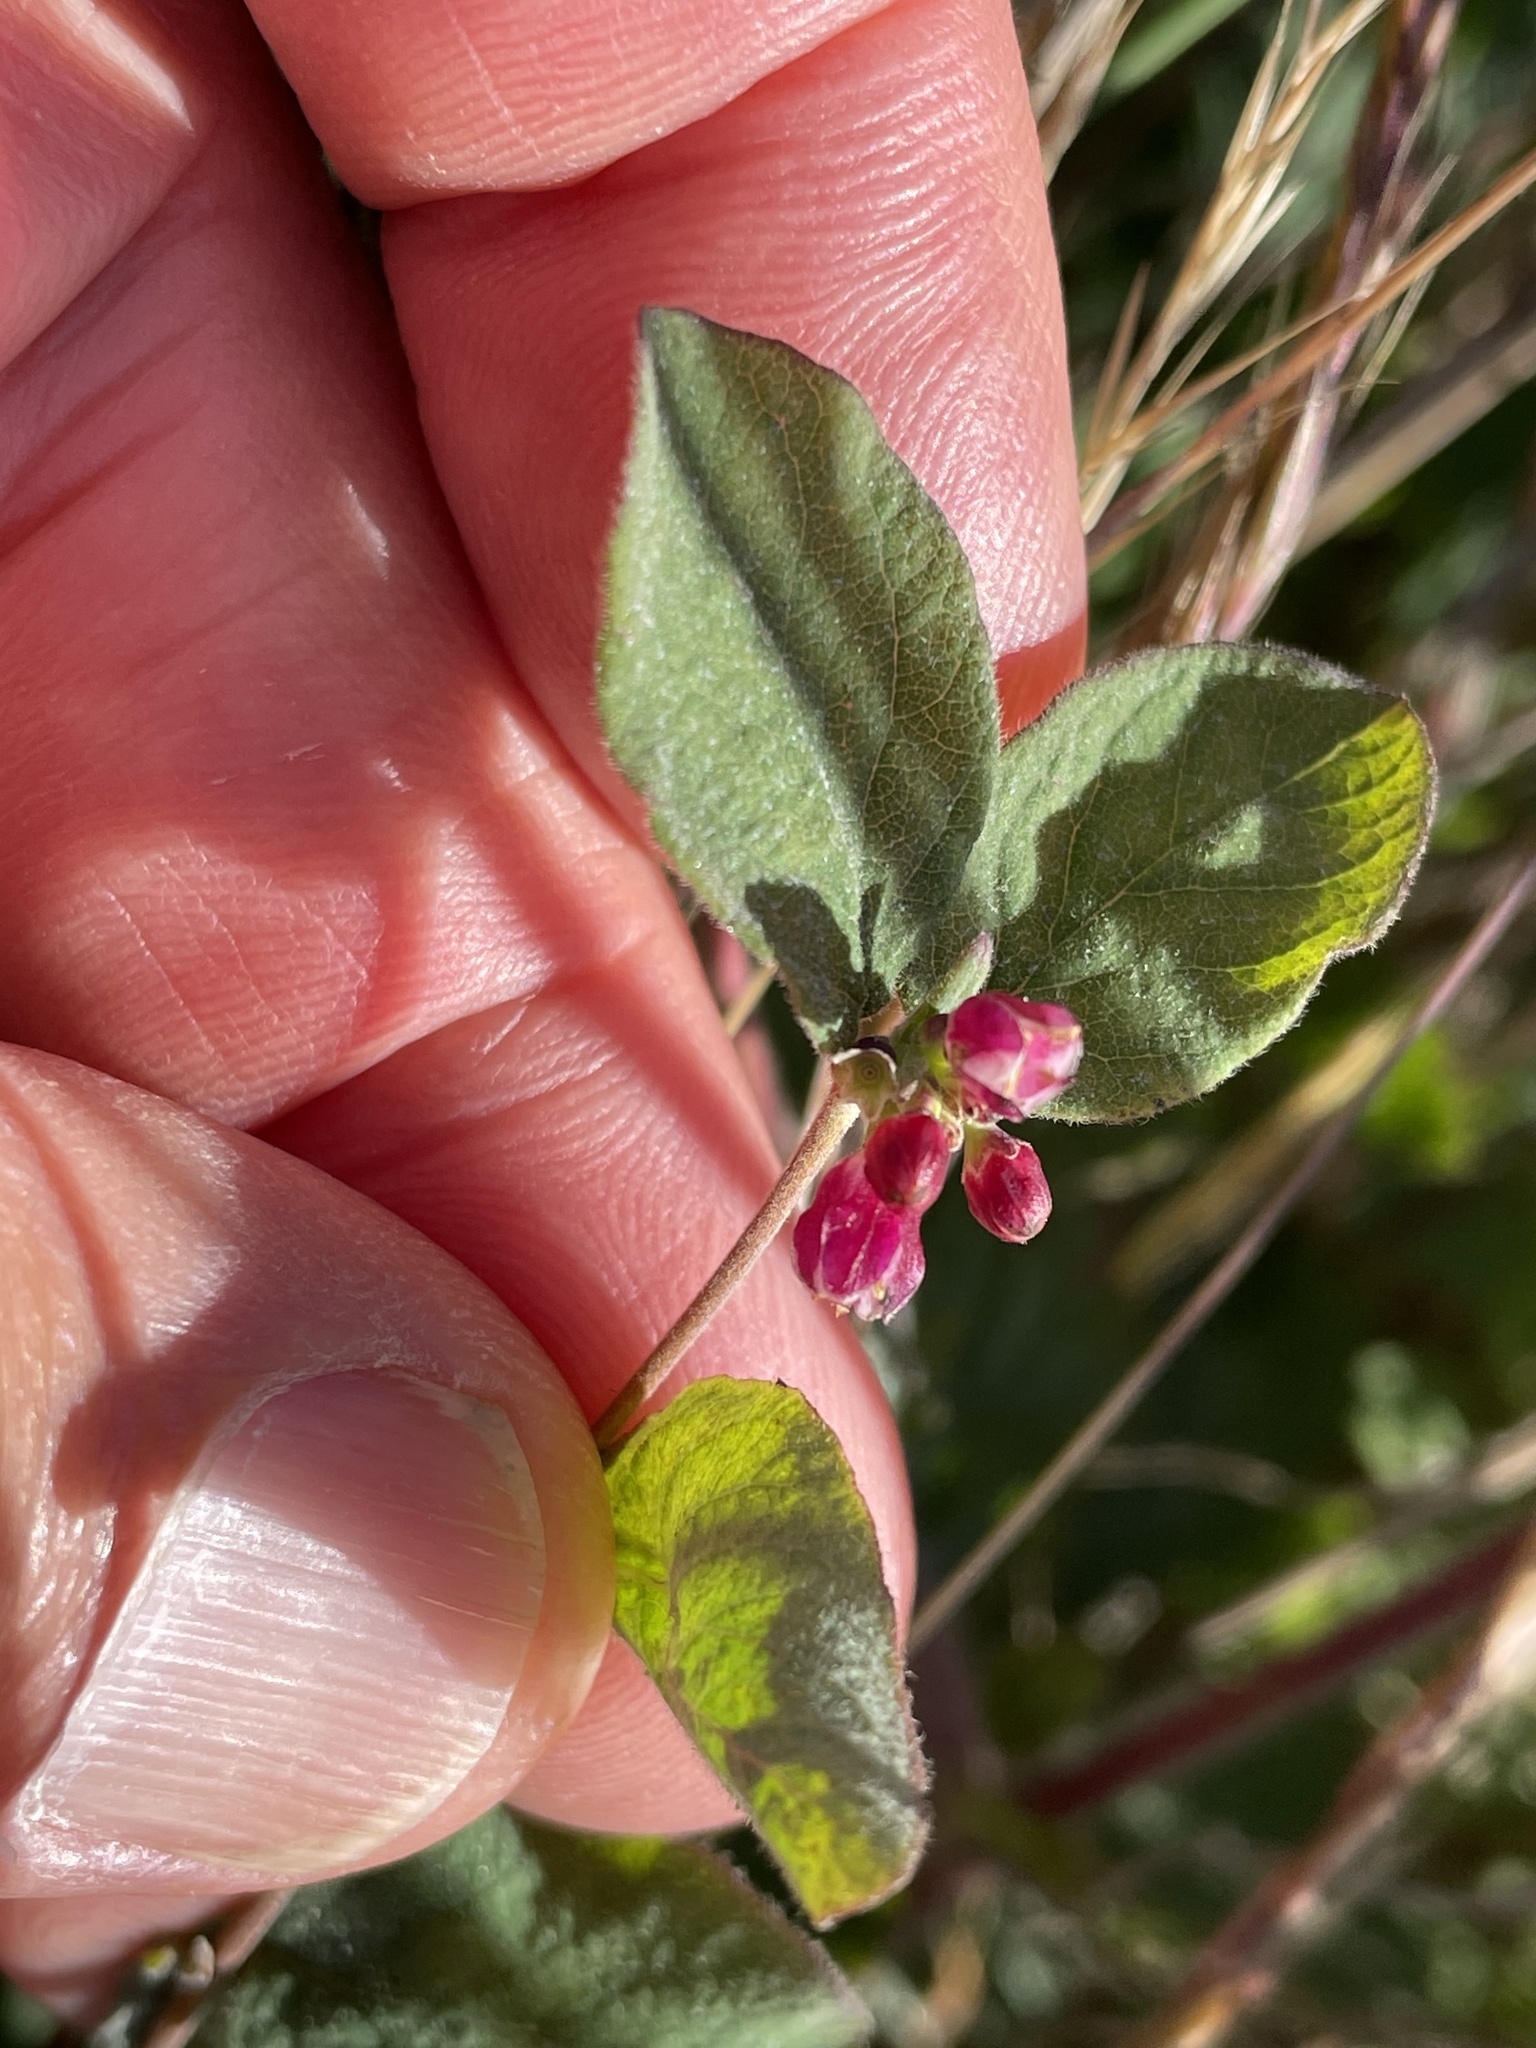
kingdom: Plantae
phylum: Tracheophyta
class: Magnoliopsida
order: Dipsacales
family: Caprifoliaceae
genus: Symphoricarpos
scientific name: Symphoricarpos mollis
